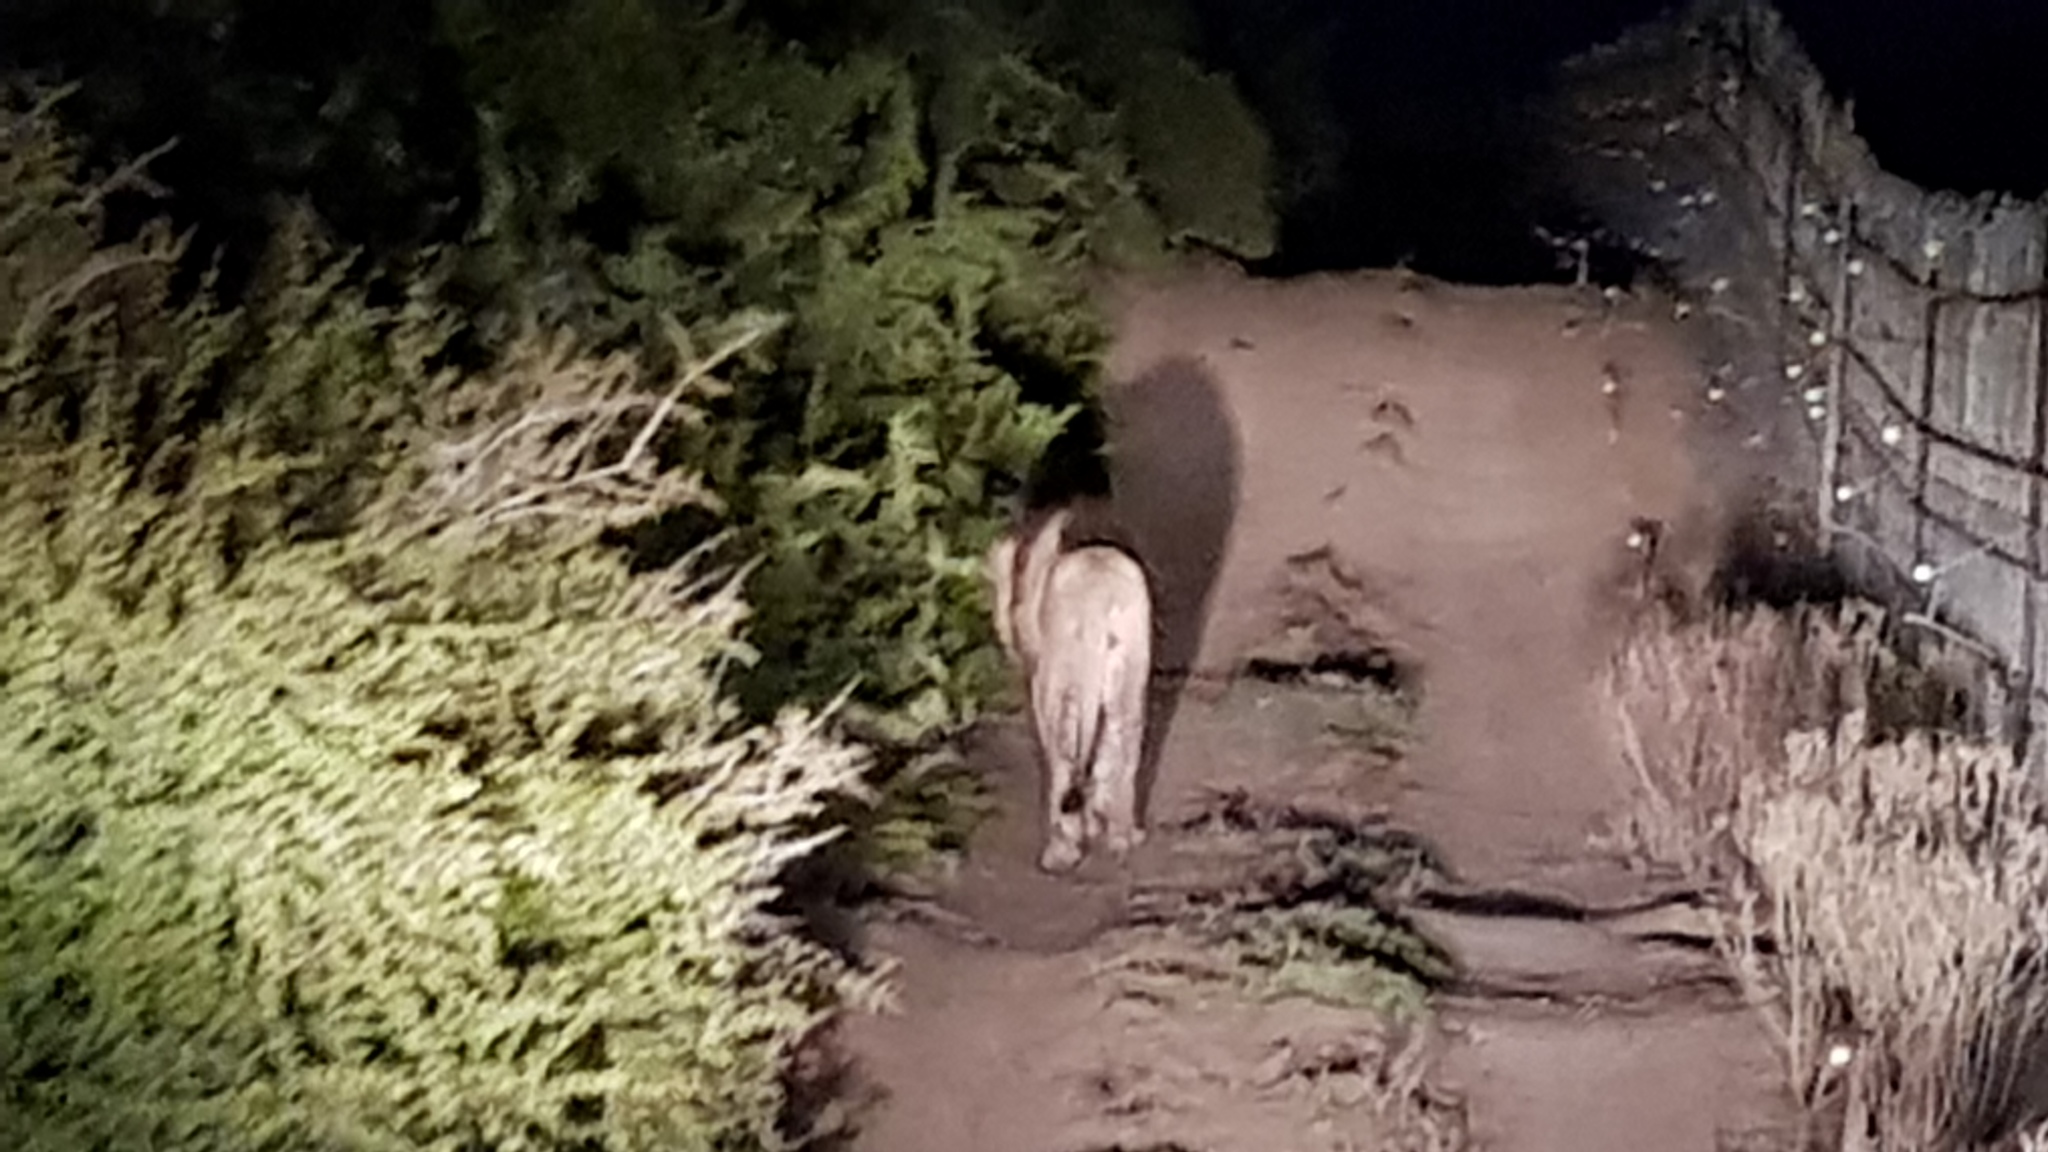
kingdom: Animalia
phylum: Chordata
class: Mammalia
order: Carnivora
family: Felidae
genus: Panthera
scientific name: Panthera leo
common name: Lion
